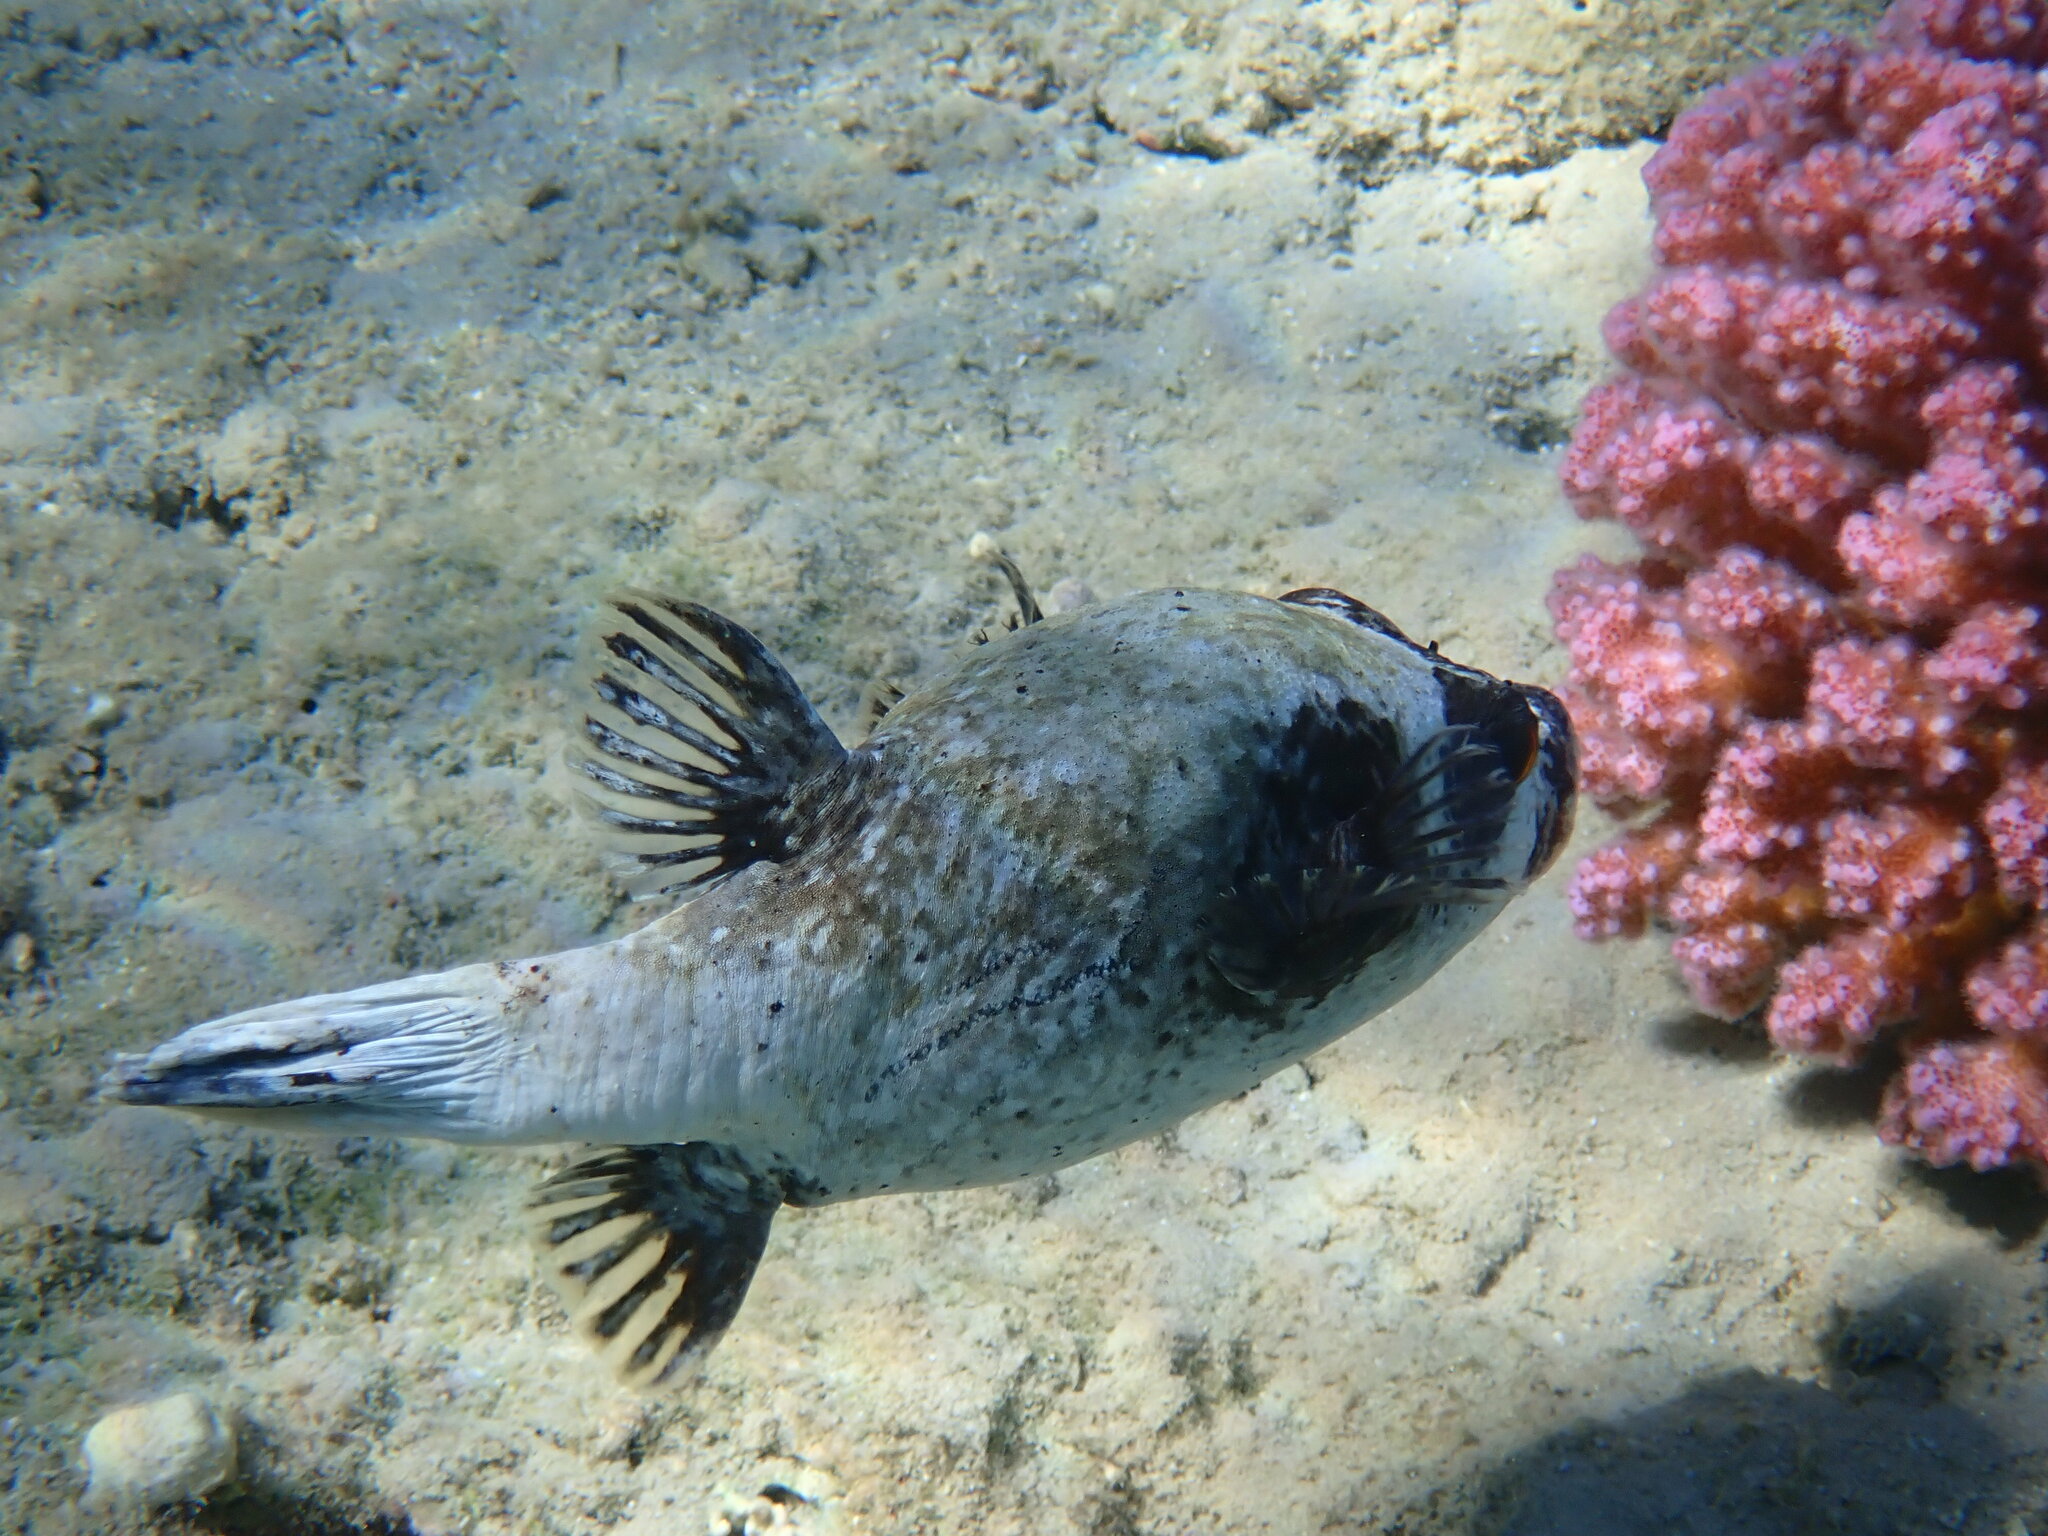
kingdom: Animalia
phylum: Chordata
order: Tetraodontiformes
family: Tetraodontidae
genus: Arothron
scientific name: Arothron diadematus
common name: Masked puffer
